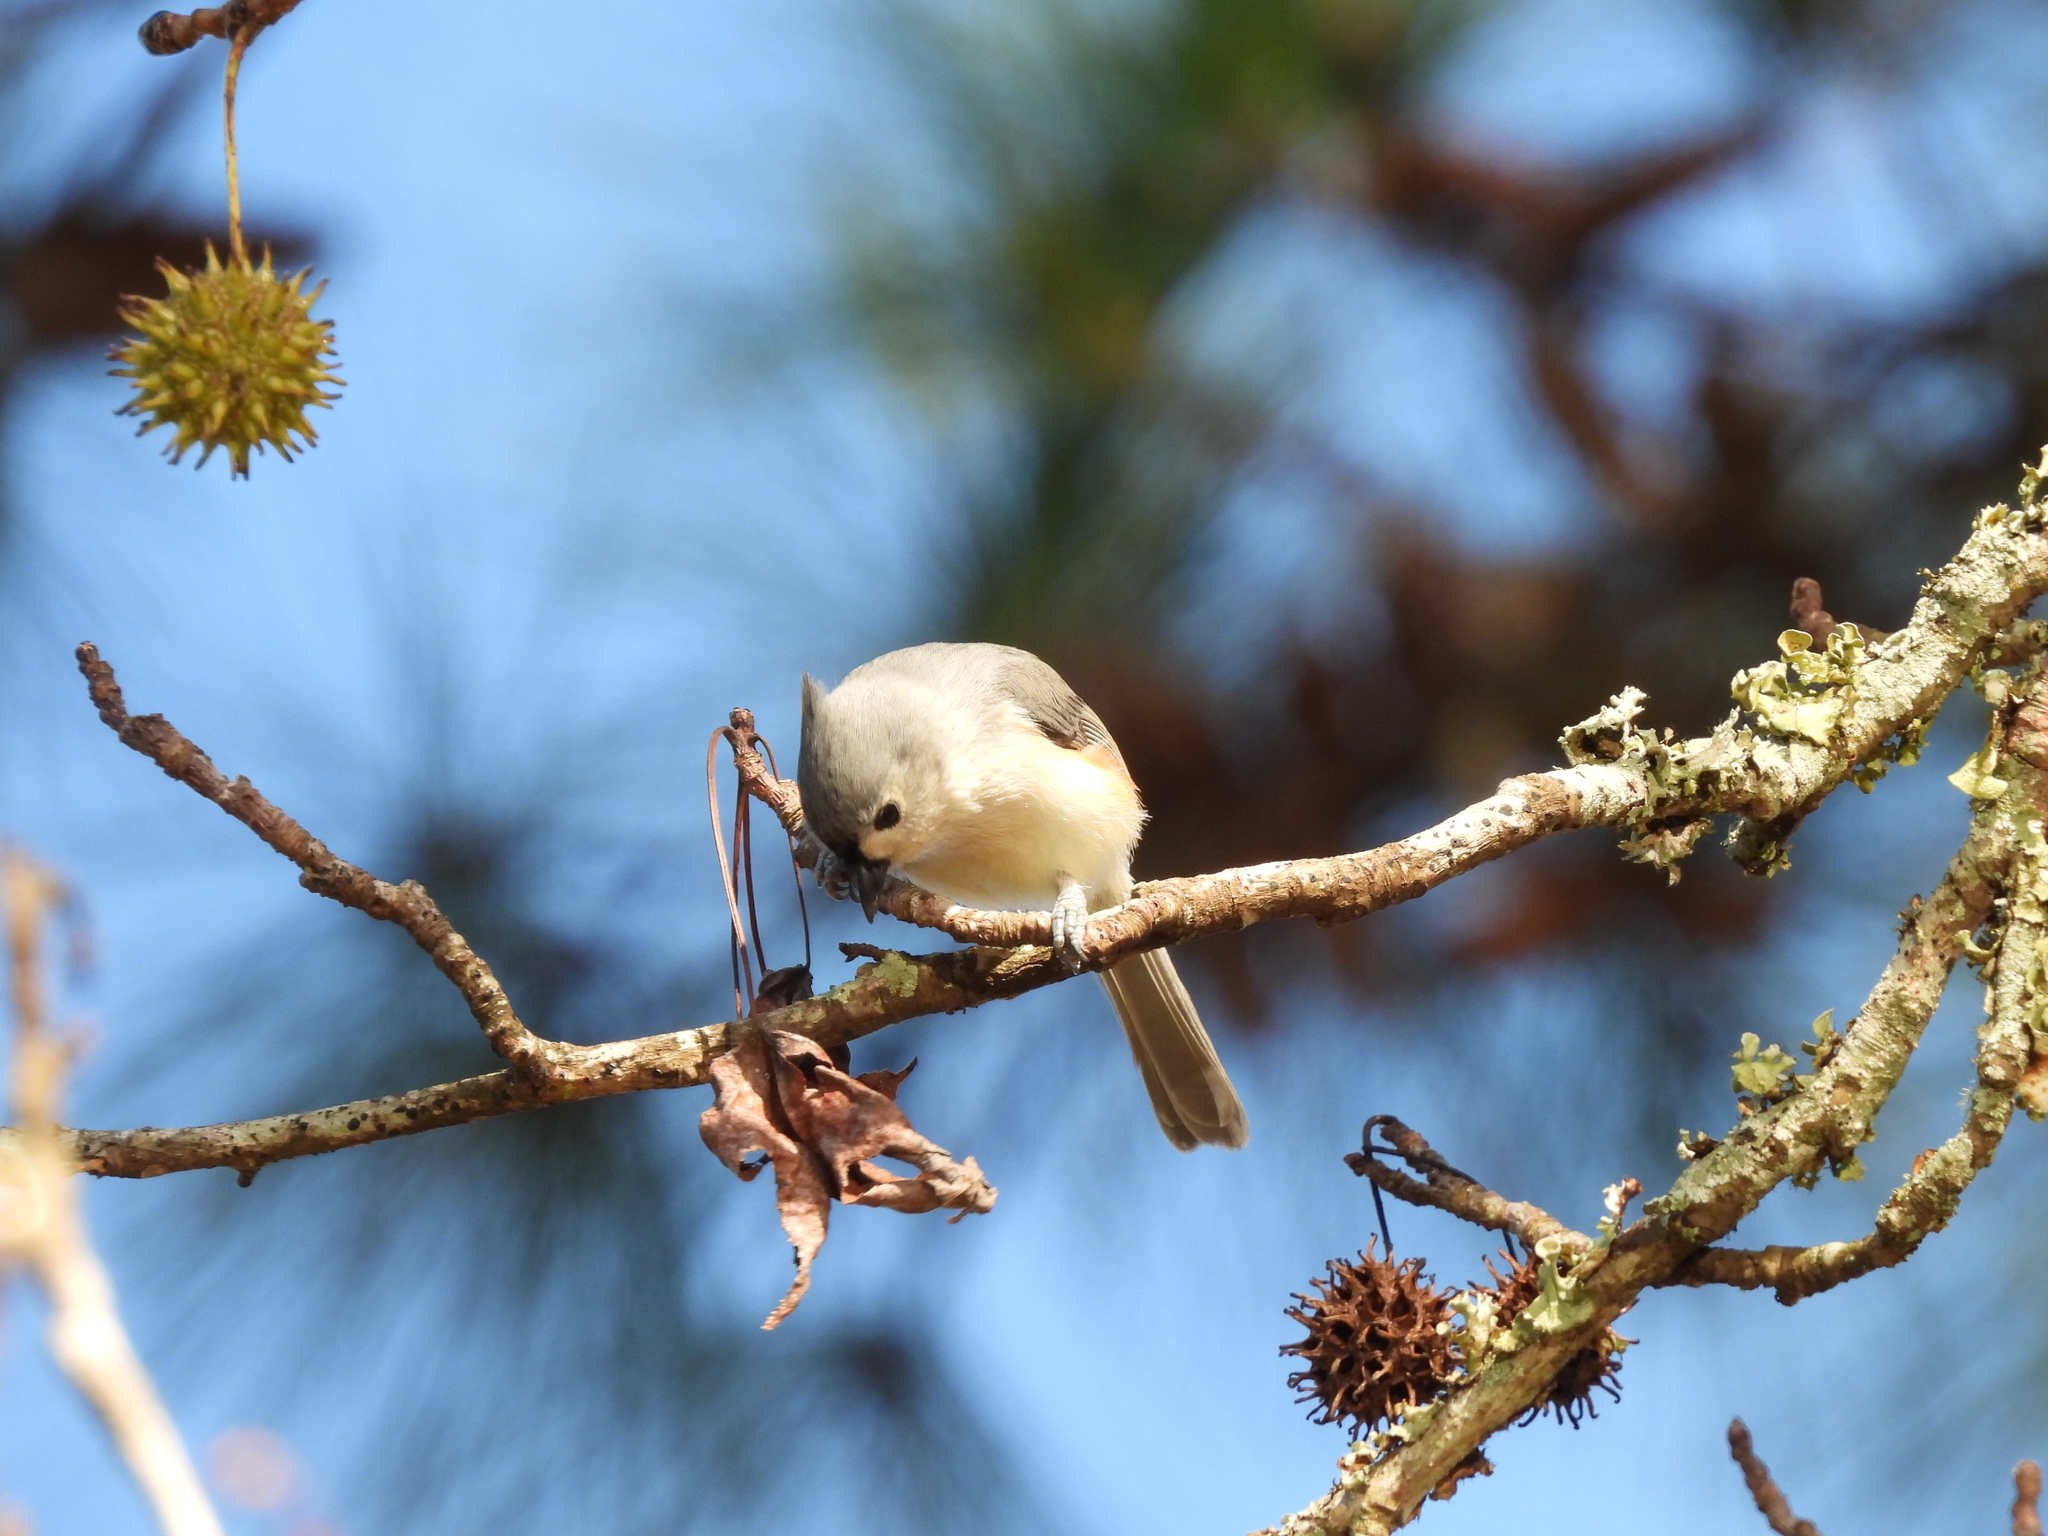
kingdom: Animalia
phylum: Chordata
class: Aves
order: Passeriformes
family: Paridae
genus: Baeolophus
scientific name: Baeolophus bicolor
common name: Tufted titmouse
